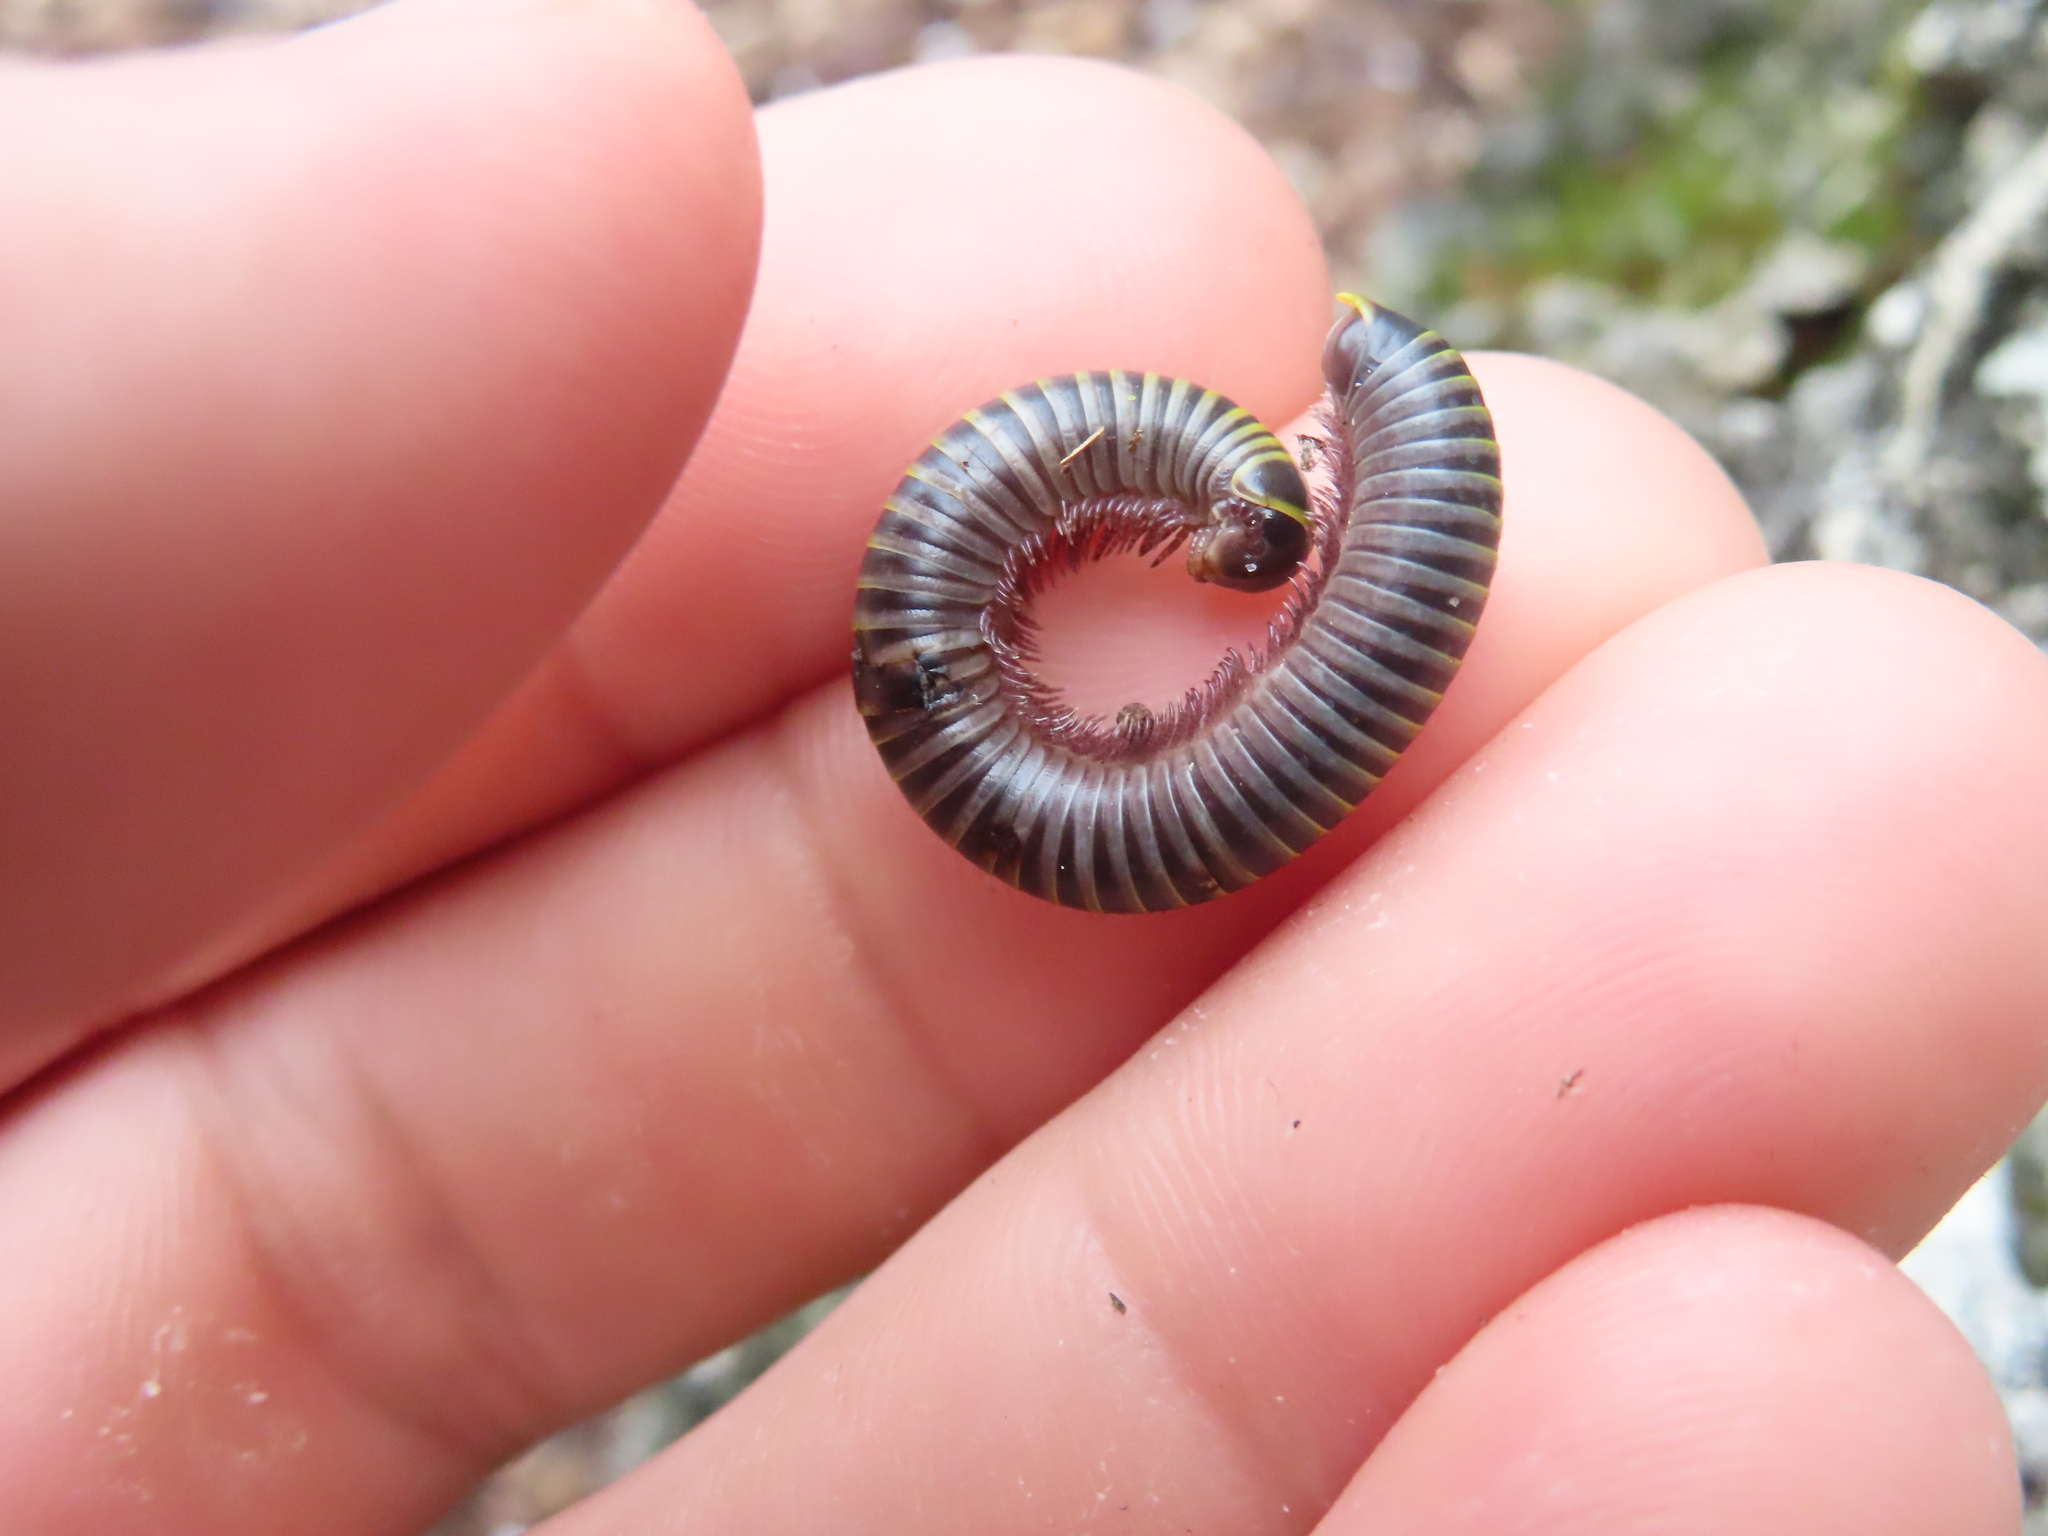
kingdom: Animalia
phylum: Arthropoda
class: Diplopoda
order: Spirobolida
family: Rhinocricidae
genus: Anadenobolus
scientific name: Anadenobolus monilicornis
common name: Caribbean millipede
